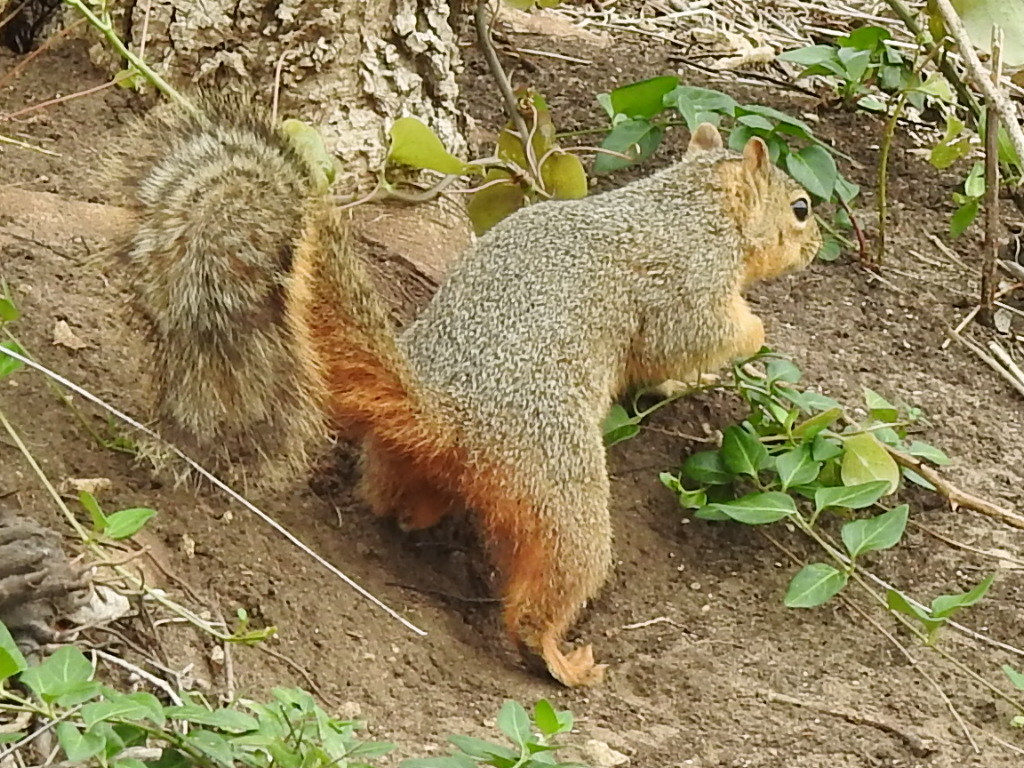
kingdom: Animalia
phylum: Chordata
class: Mammalia
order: Rodentia
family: Sciuridae
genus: Sciurus
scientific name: Sciurus niger
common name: Fox squirrel
